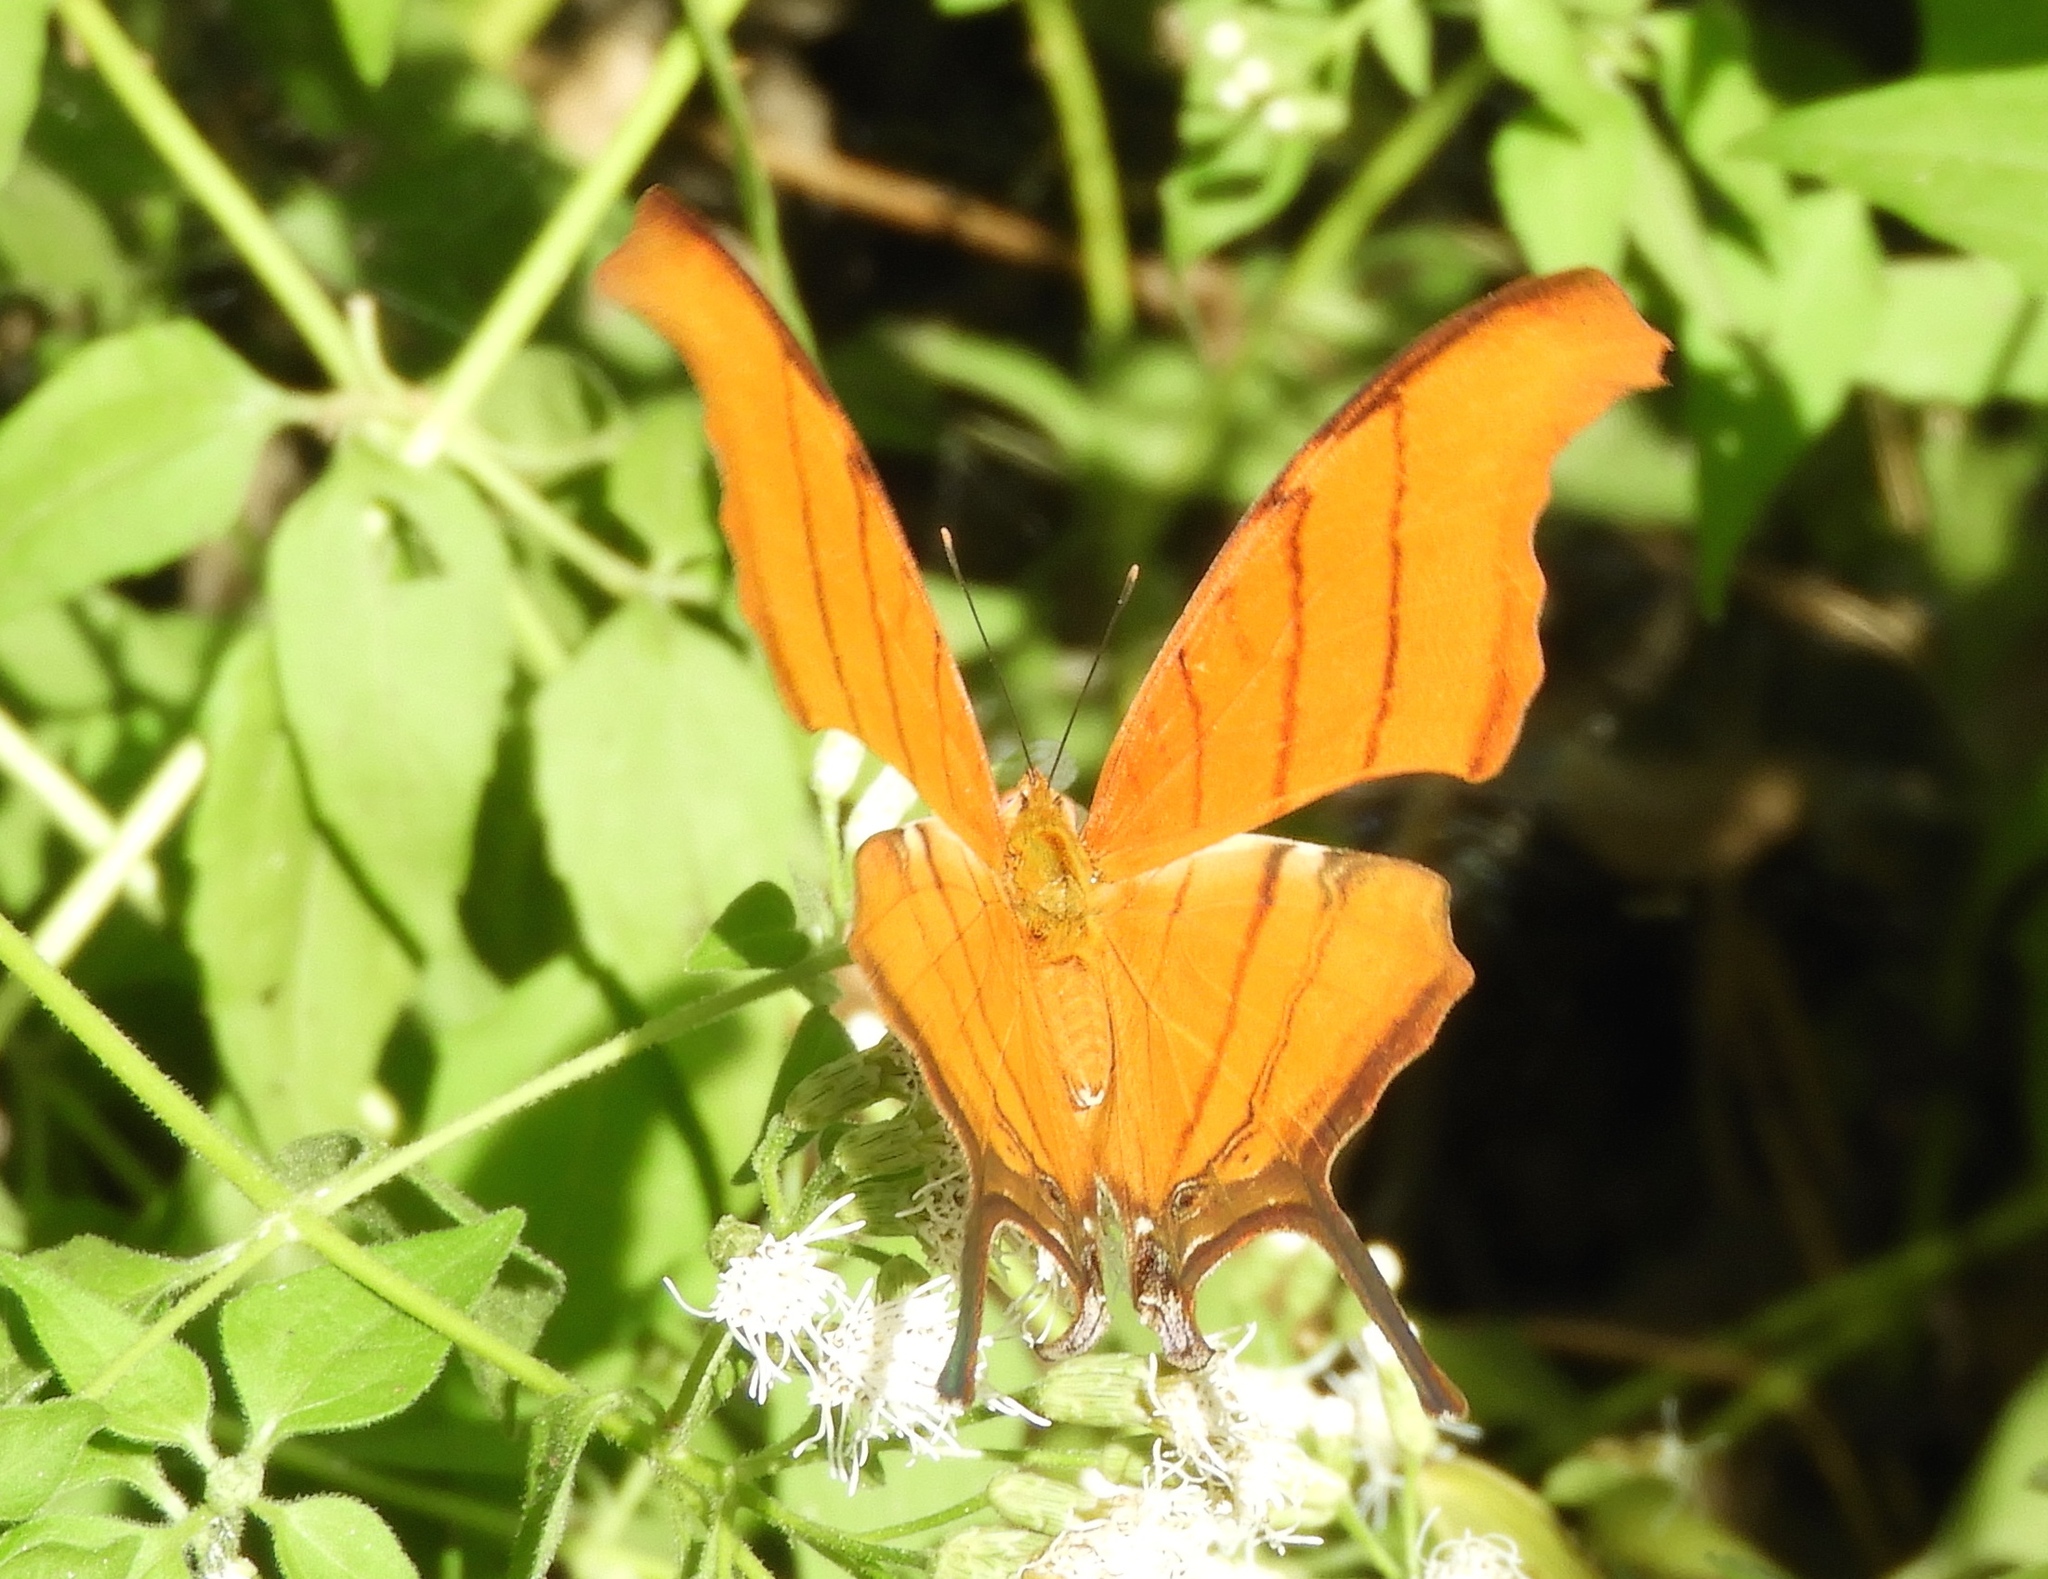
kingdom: Animalia
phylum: Arthropoda
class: Insecta
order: Lepidoptera
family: Nymphalidae
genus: Marpesia
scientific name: Marpesia petreus
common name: Red dagger wing
